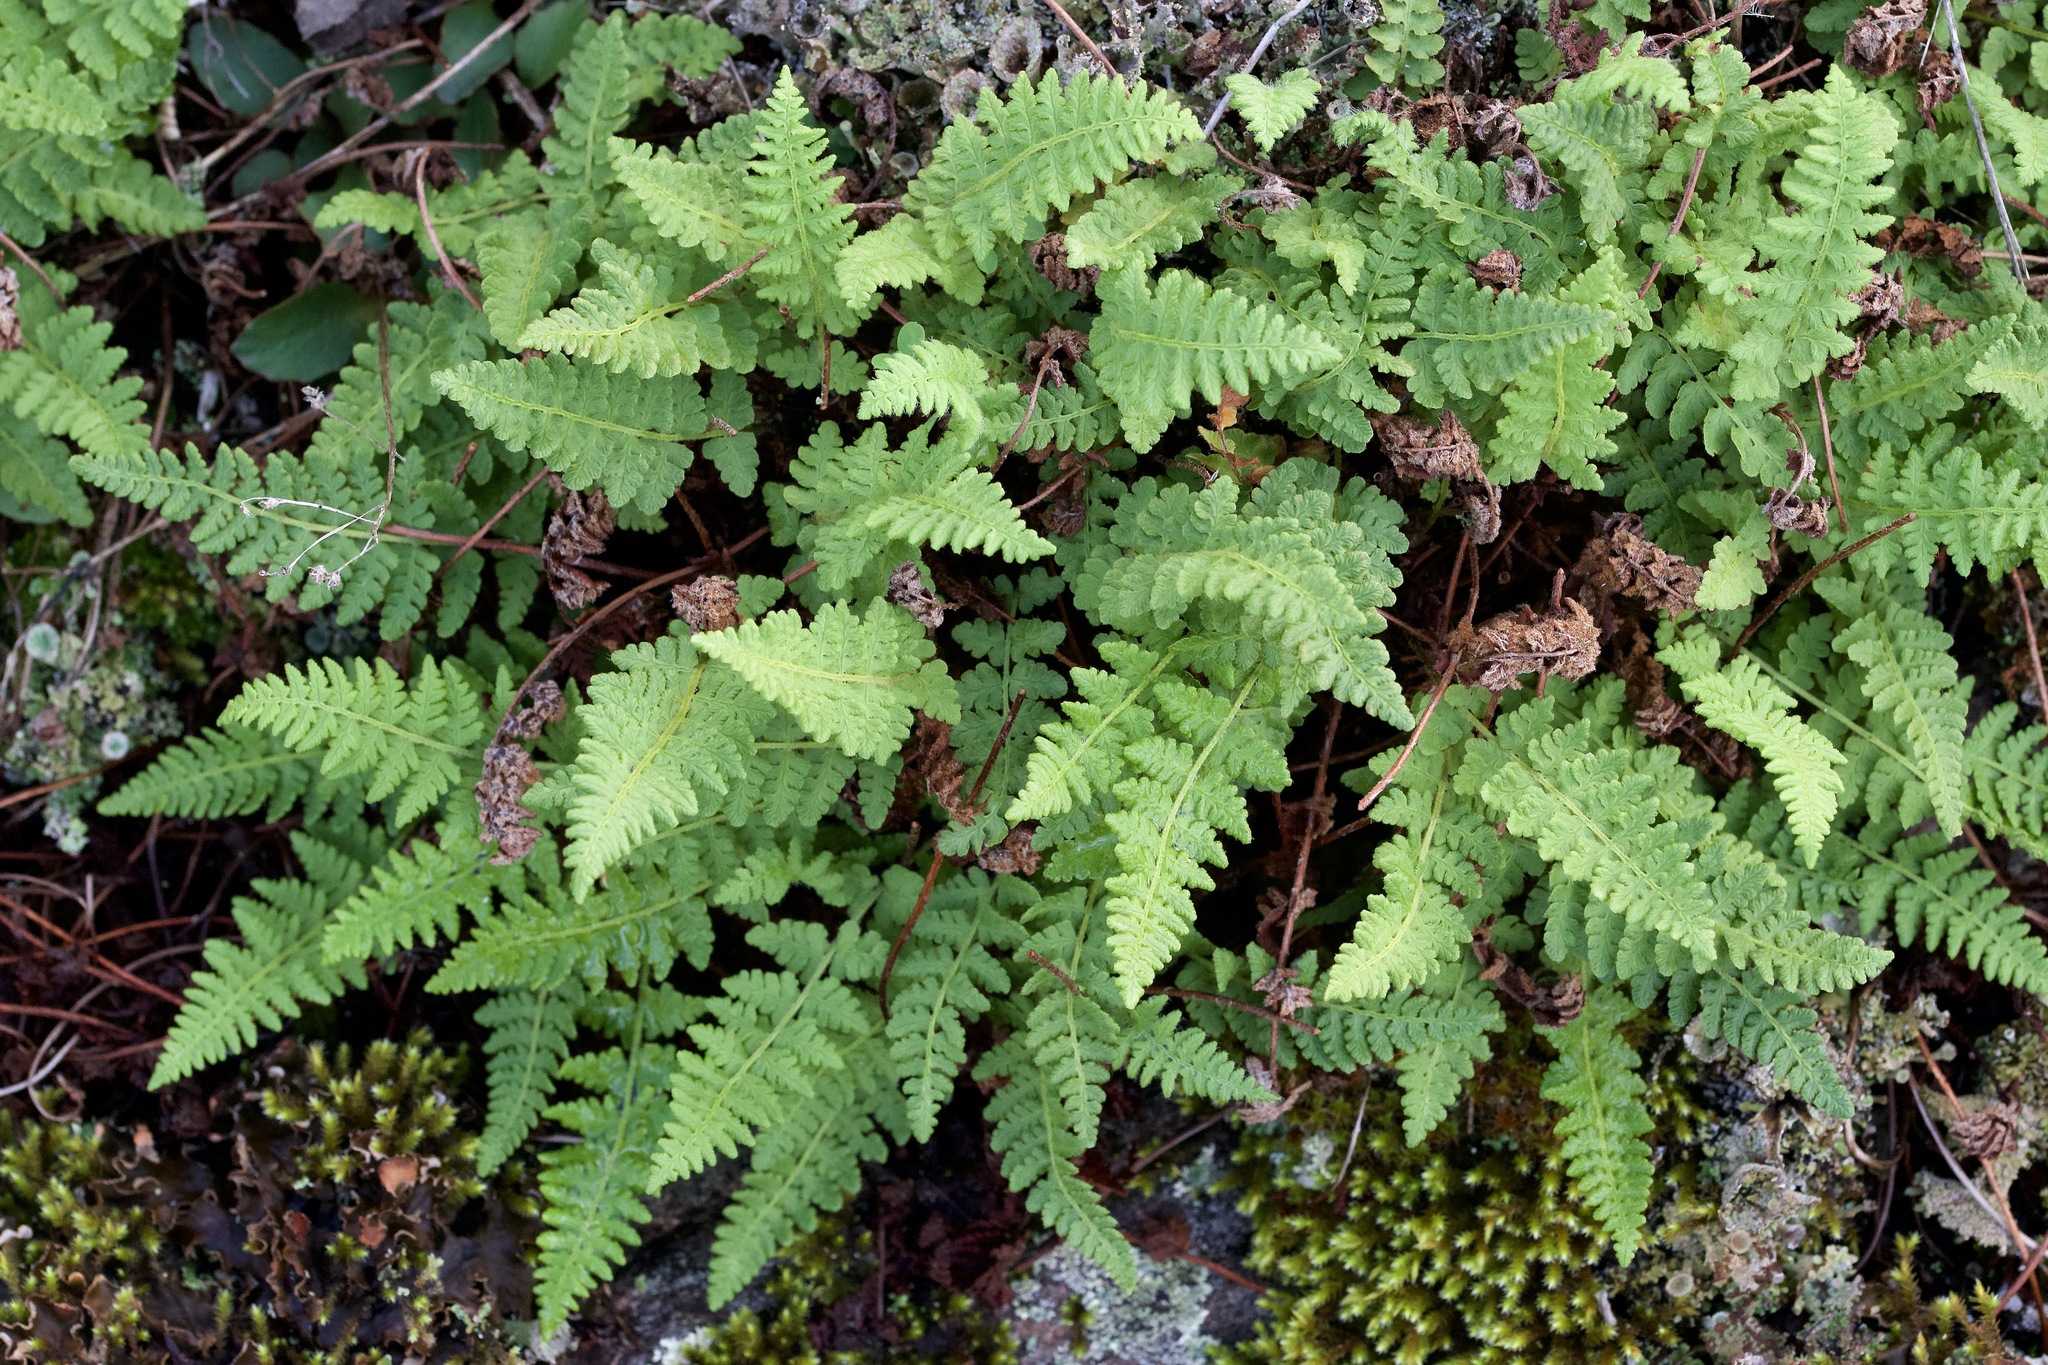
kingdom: Plantae
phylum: Tracheophyta
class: Polypodiopsida
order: Polypodiales
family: Woodsiaceae
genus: Woodsia
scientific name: Woodsia ilvensis
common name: Fragrant woodsia
